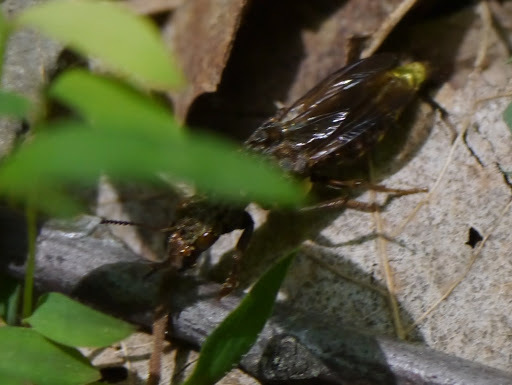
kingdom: Animalia
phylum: Arthropoda
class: Insecta
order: Coleoptera
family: Staphylinidae
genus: Ontholestes
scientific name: Ontholestes cingulatus
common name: Gold-and-brown rove beetle
